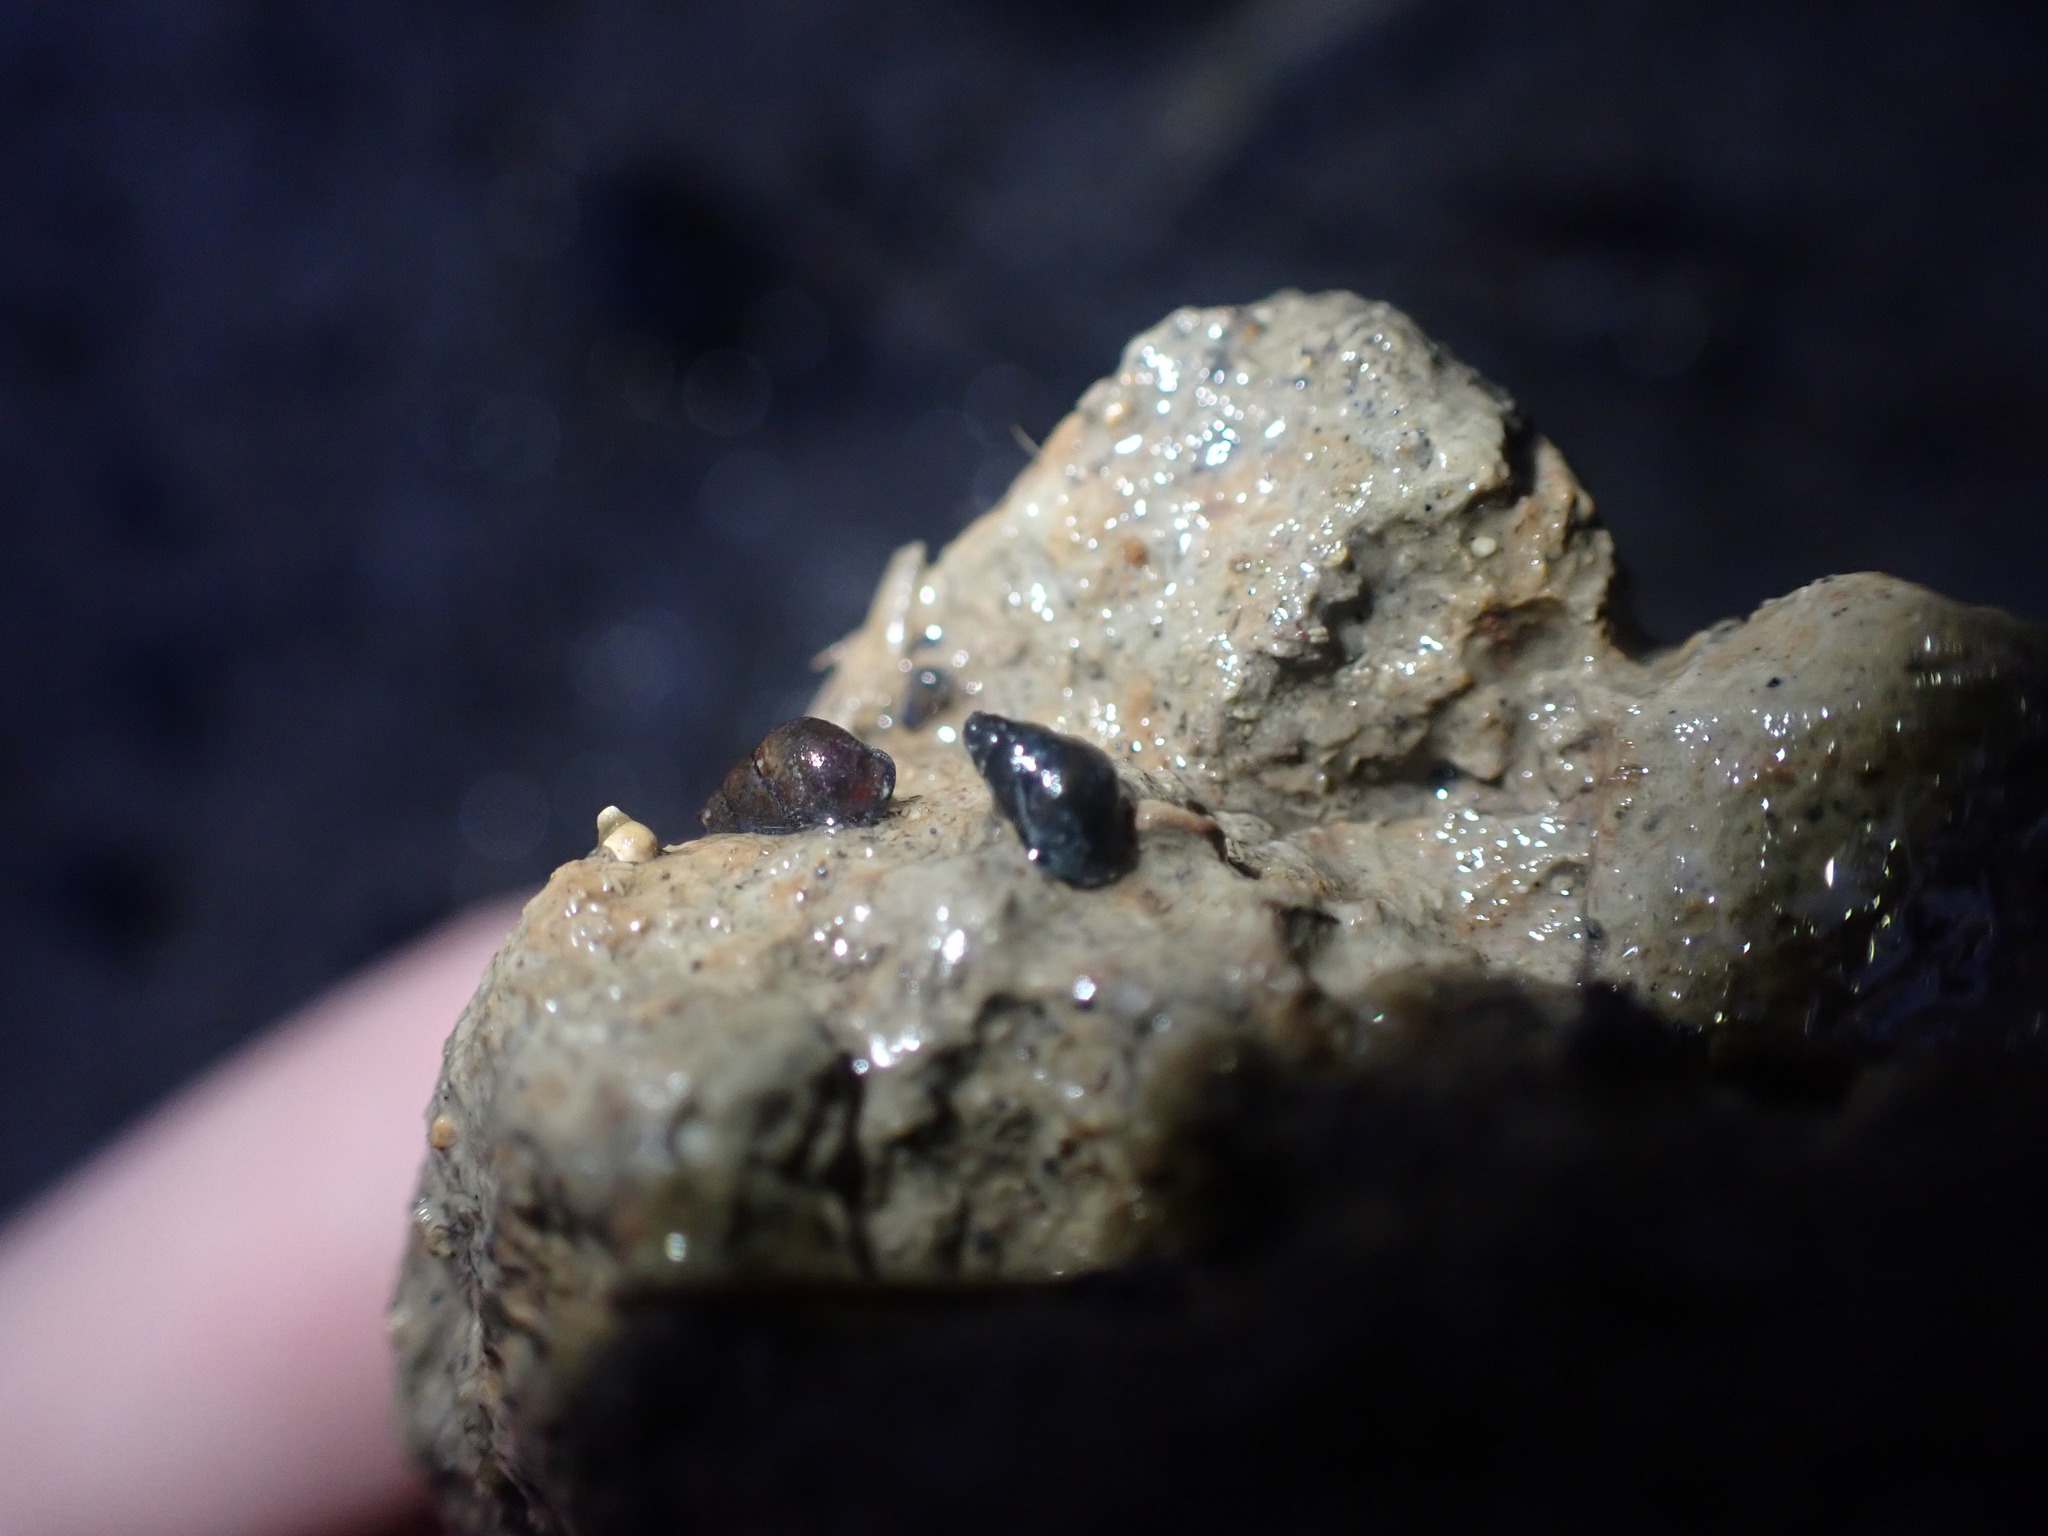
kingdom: Animalia
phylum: Mollusca
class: Gastropoda
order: Littorinimorpha
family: Tateidae
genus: Potamopyrgus
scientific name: Potamopyrgus estuarinus
